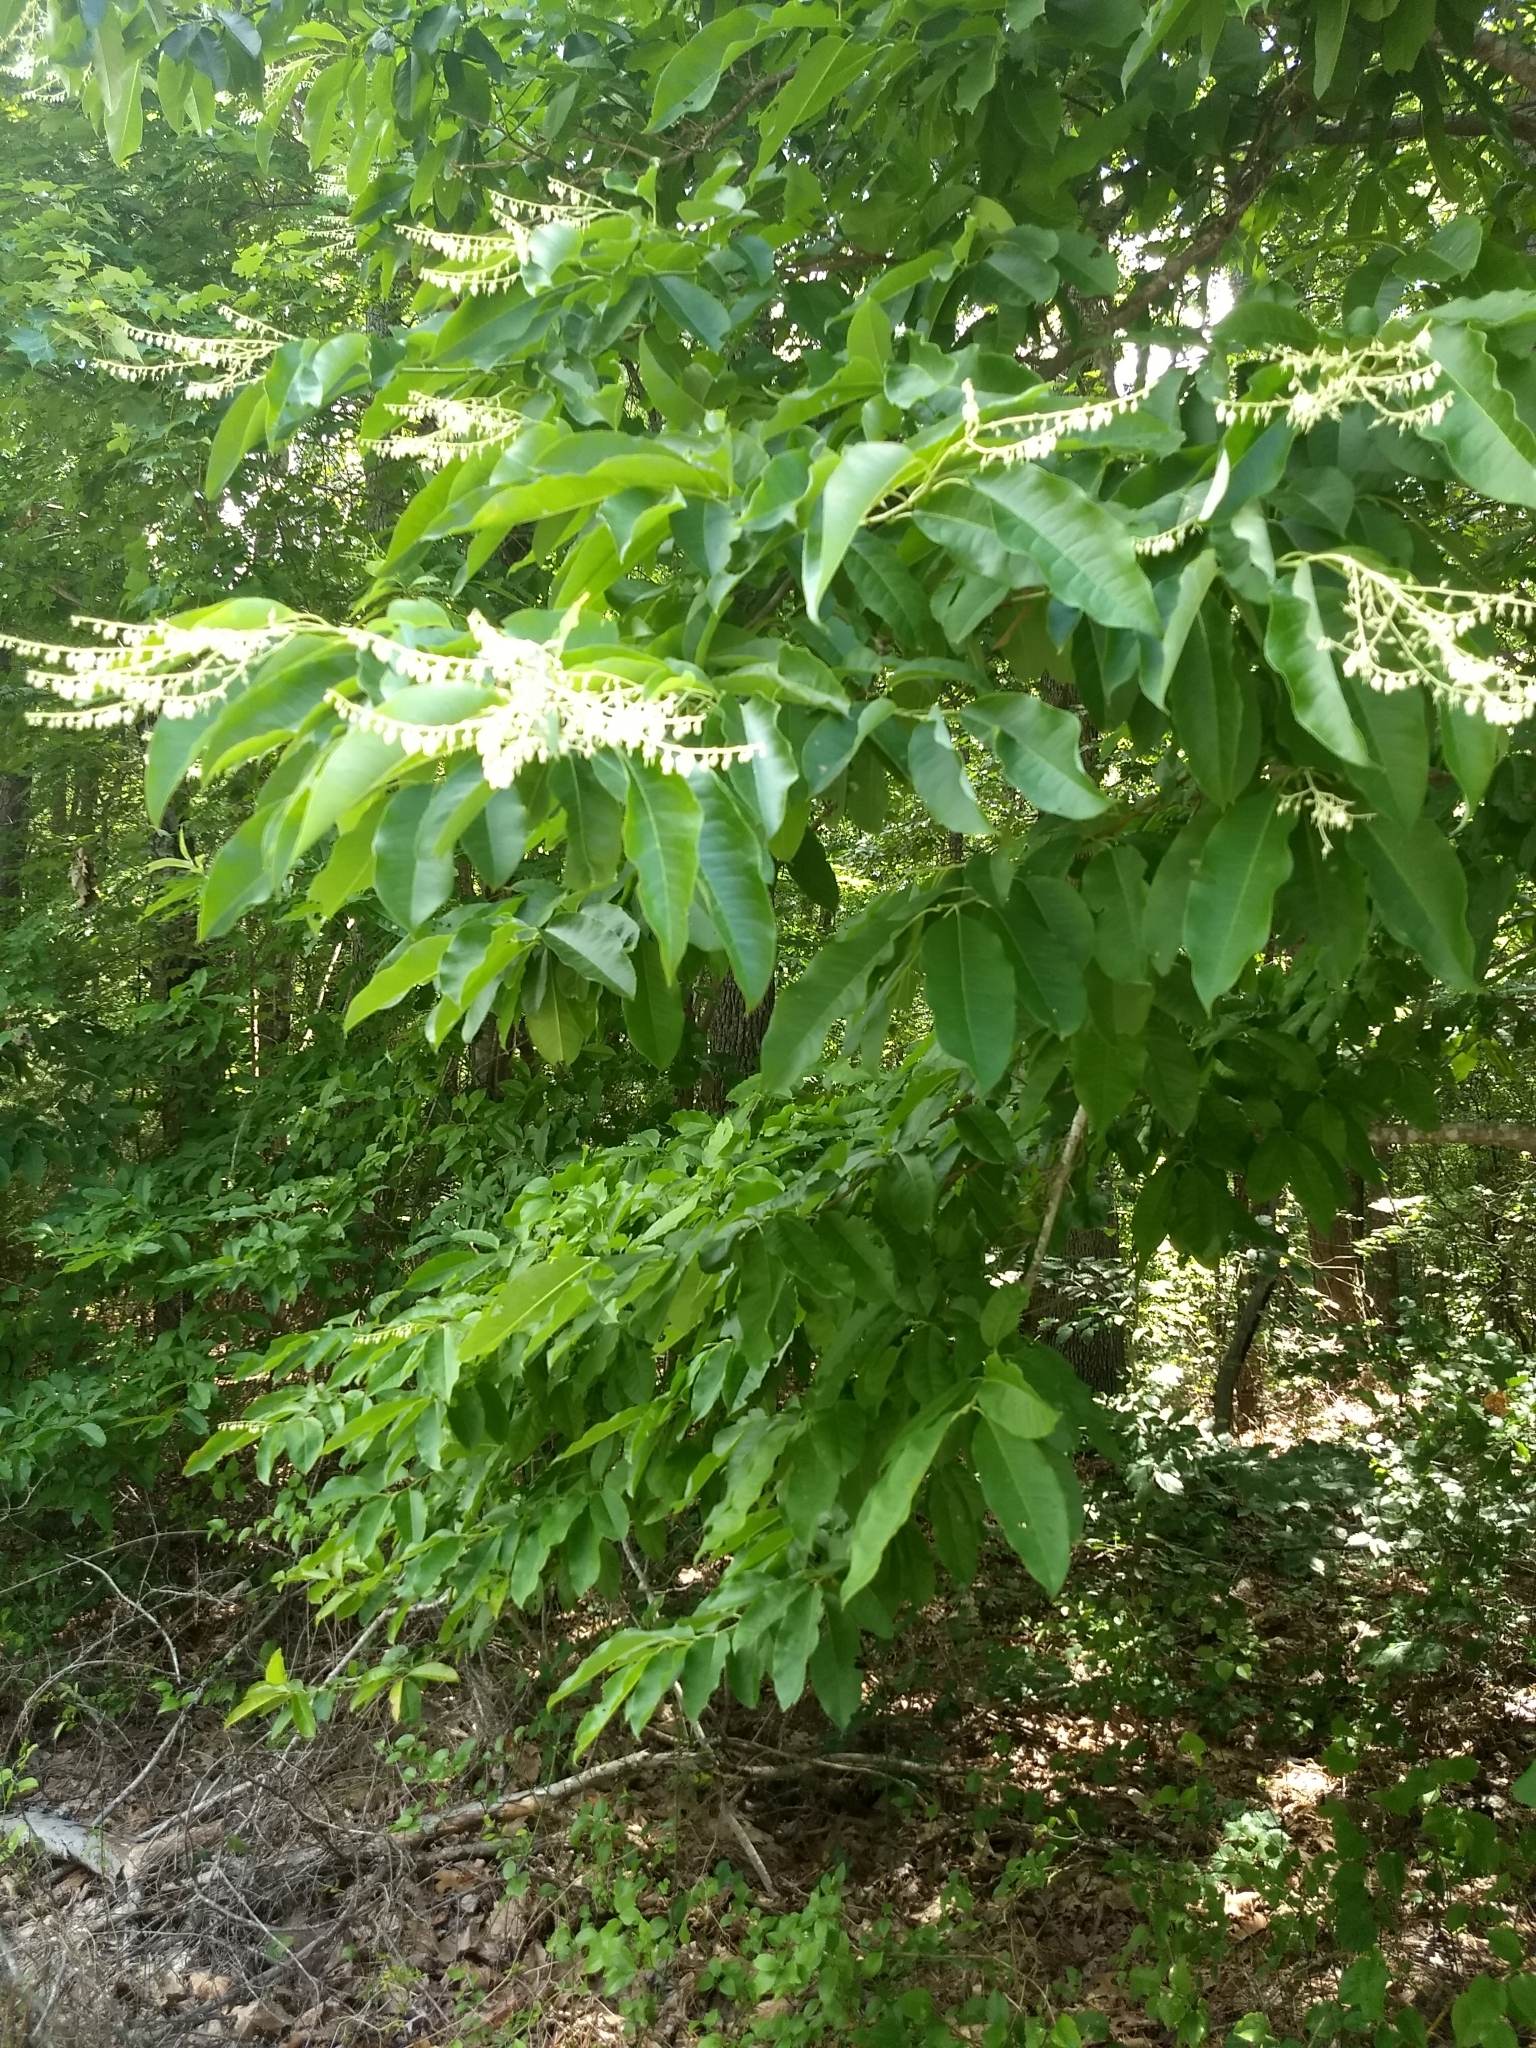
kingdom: Plantae
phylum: Tracheophyta
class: Magnoliopsida
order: Ericales
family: Ericaceae
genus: Oxydendrum
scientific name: Oxydendrum arboreum
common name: Sourwood
